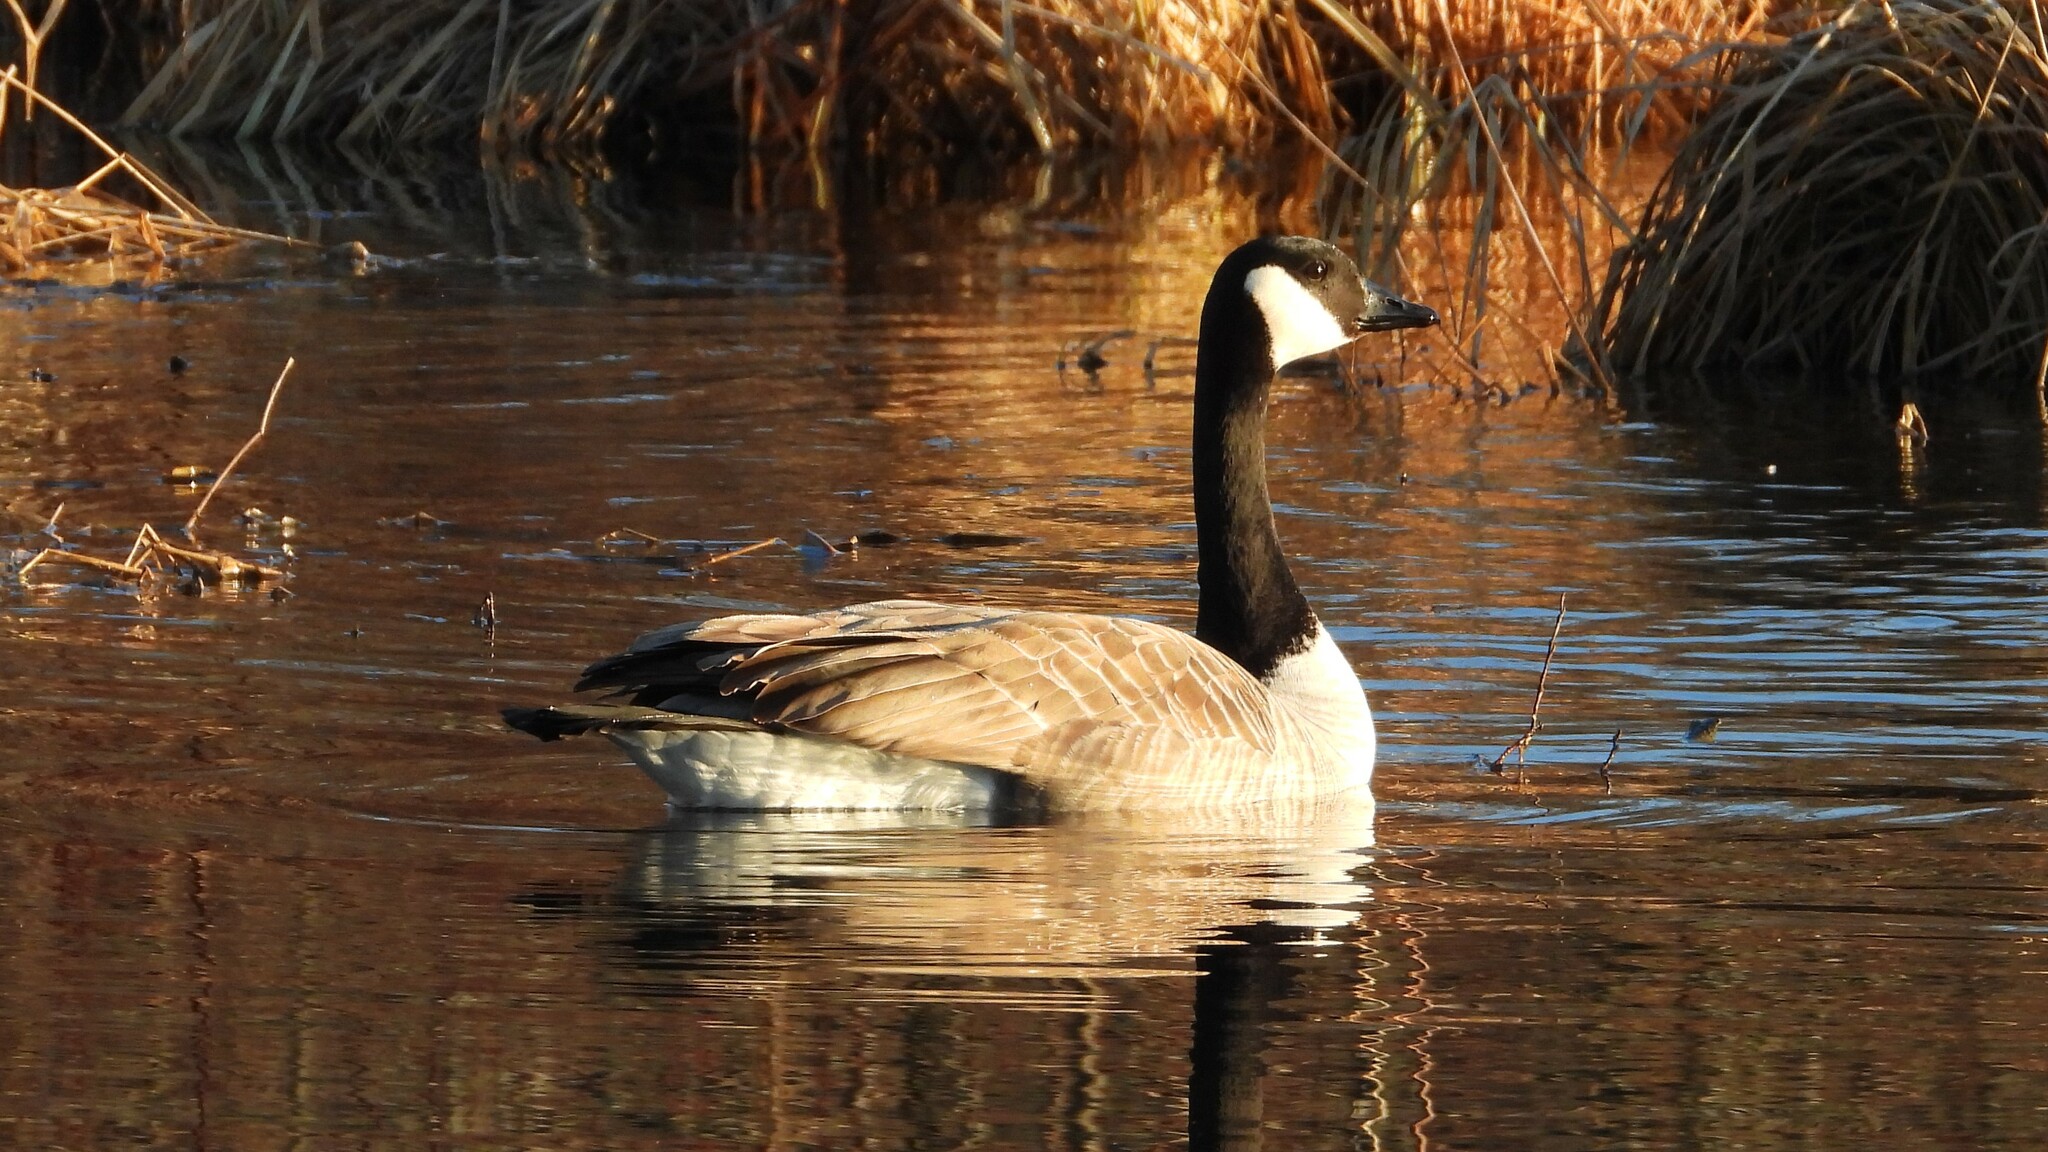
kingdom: Animalia
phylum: Chordata
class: Aves
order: Anseriformes
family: Anatidae
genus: Branta
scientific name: Branta canadensis
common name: Canada goose
